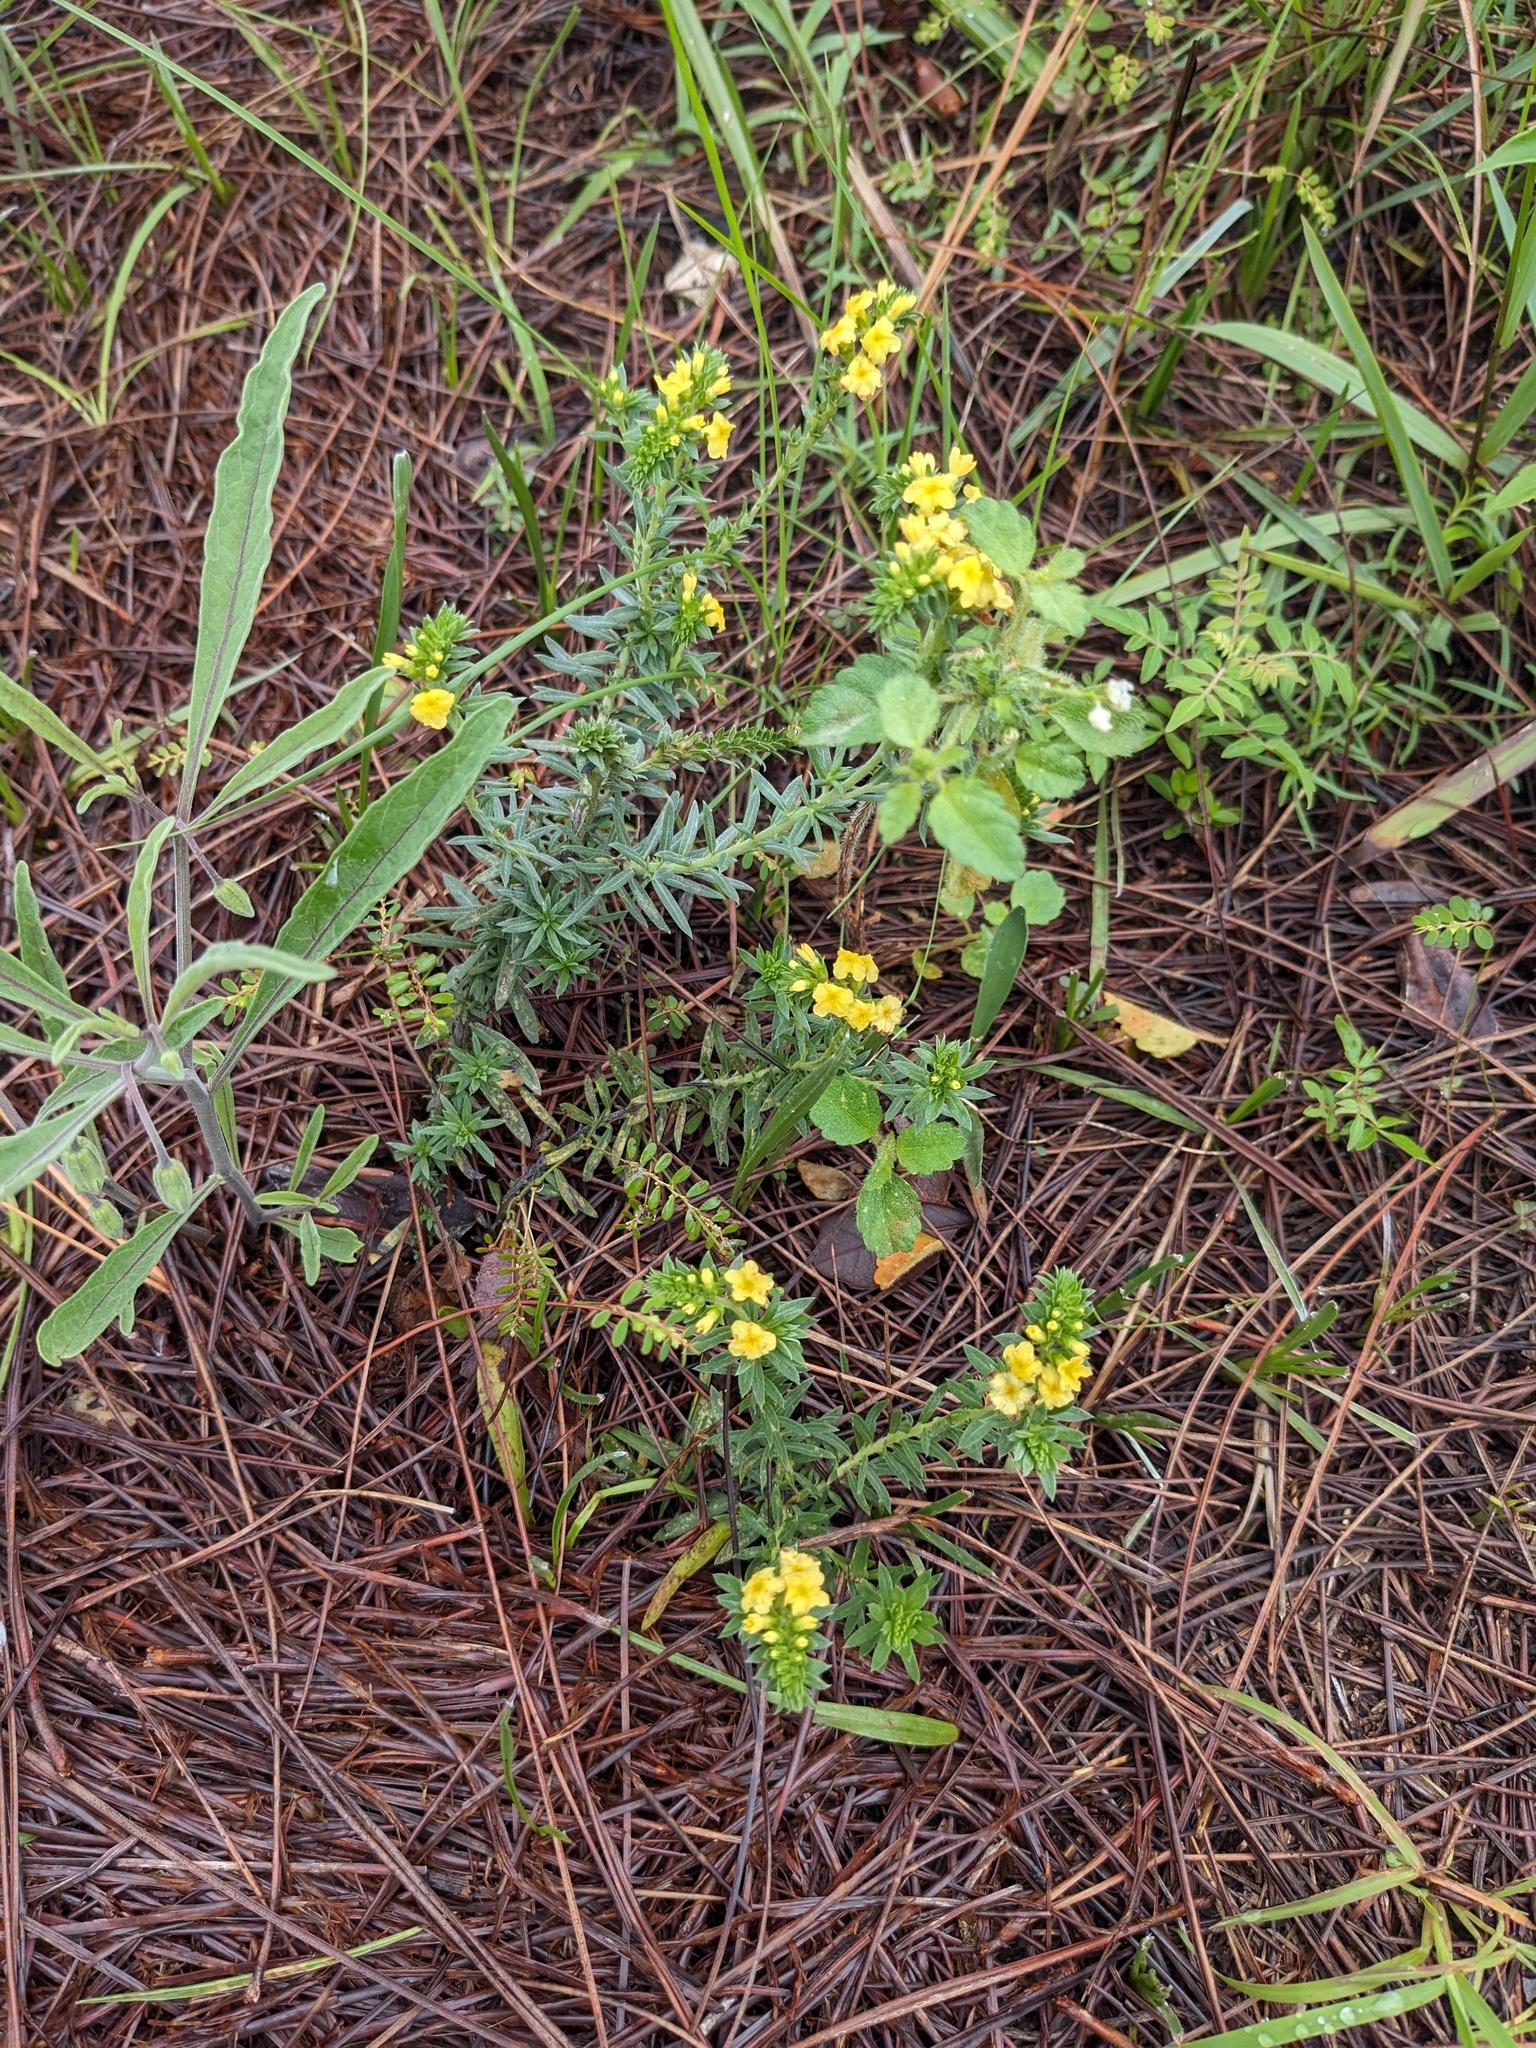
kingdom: Plantae
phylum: Tracheophyta
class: Magnoliopsida
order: Boraginales
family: Heliotropiaceae
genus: Euploca
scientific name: Euploca polyphylla
